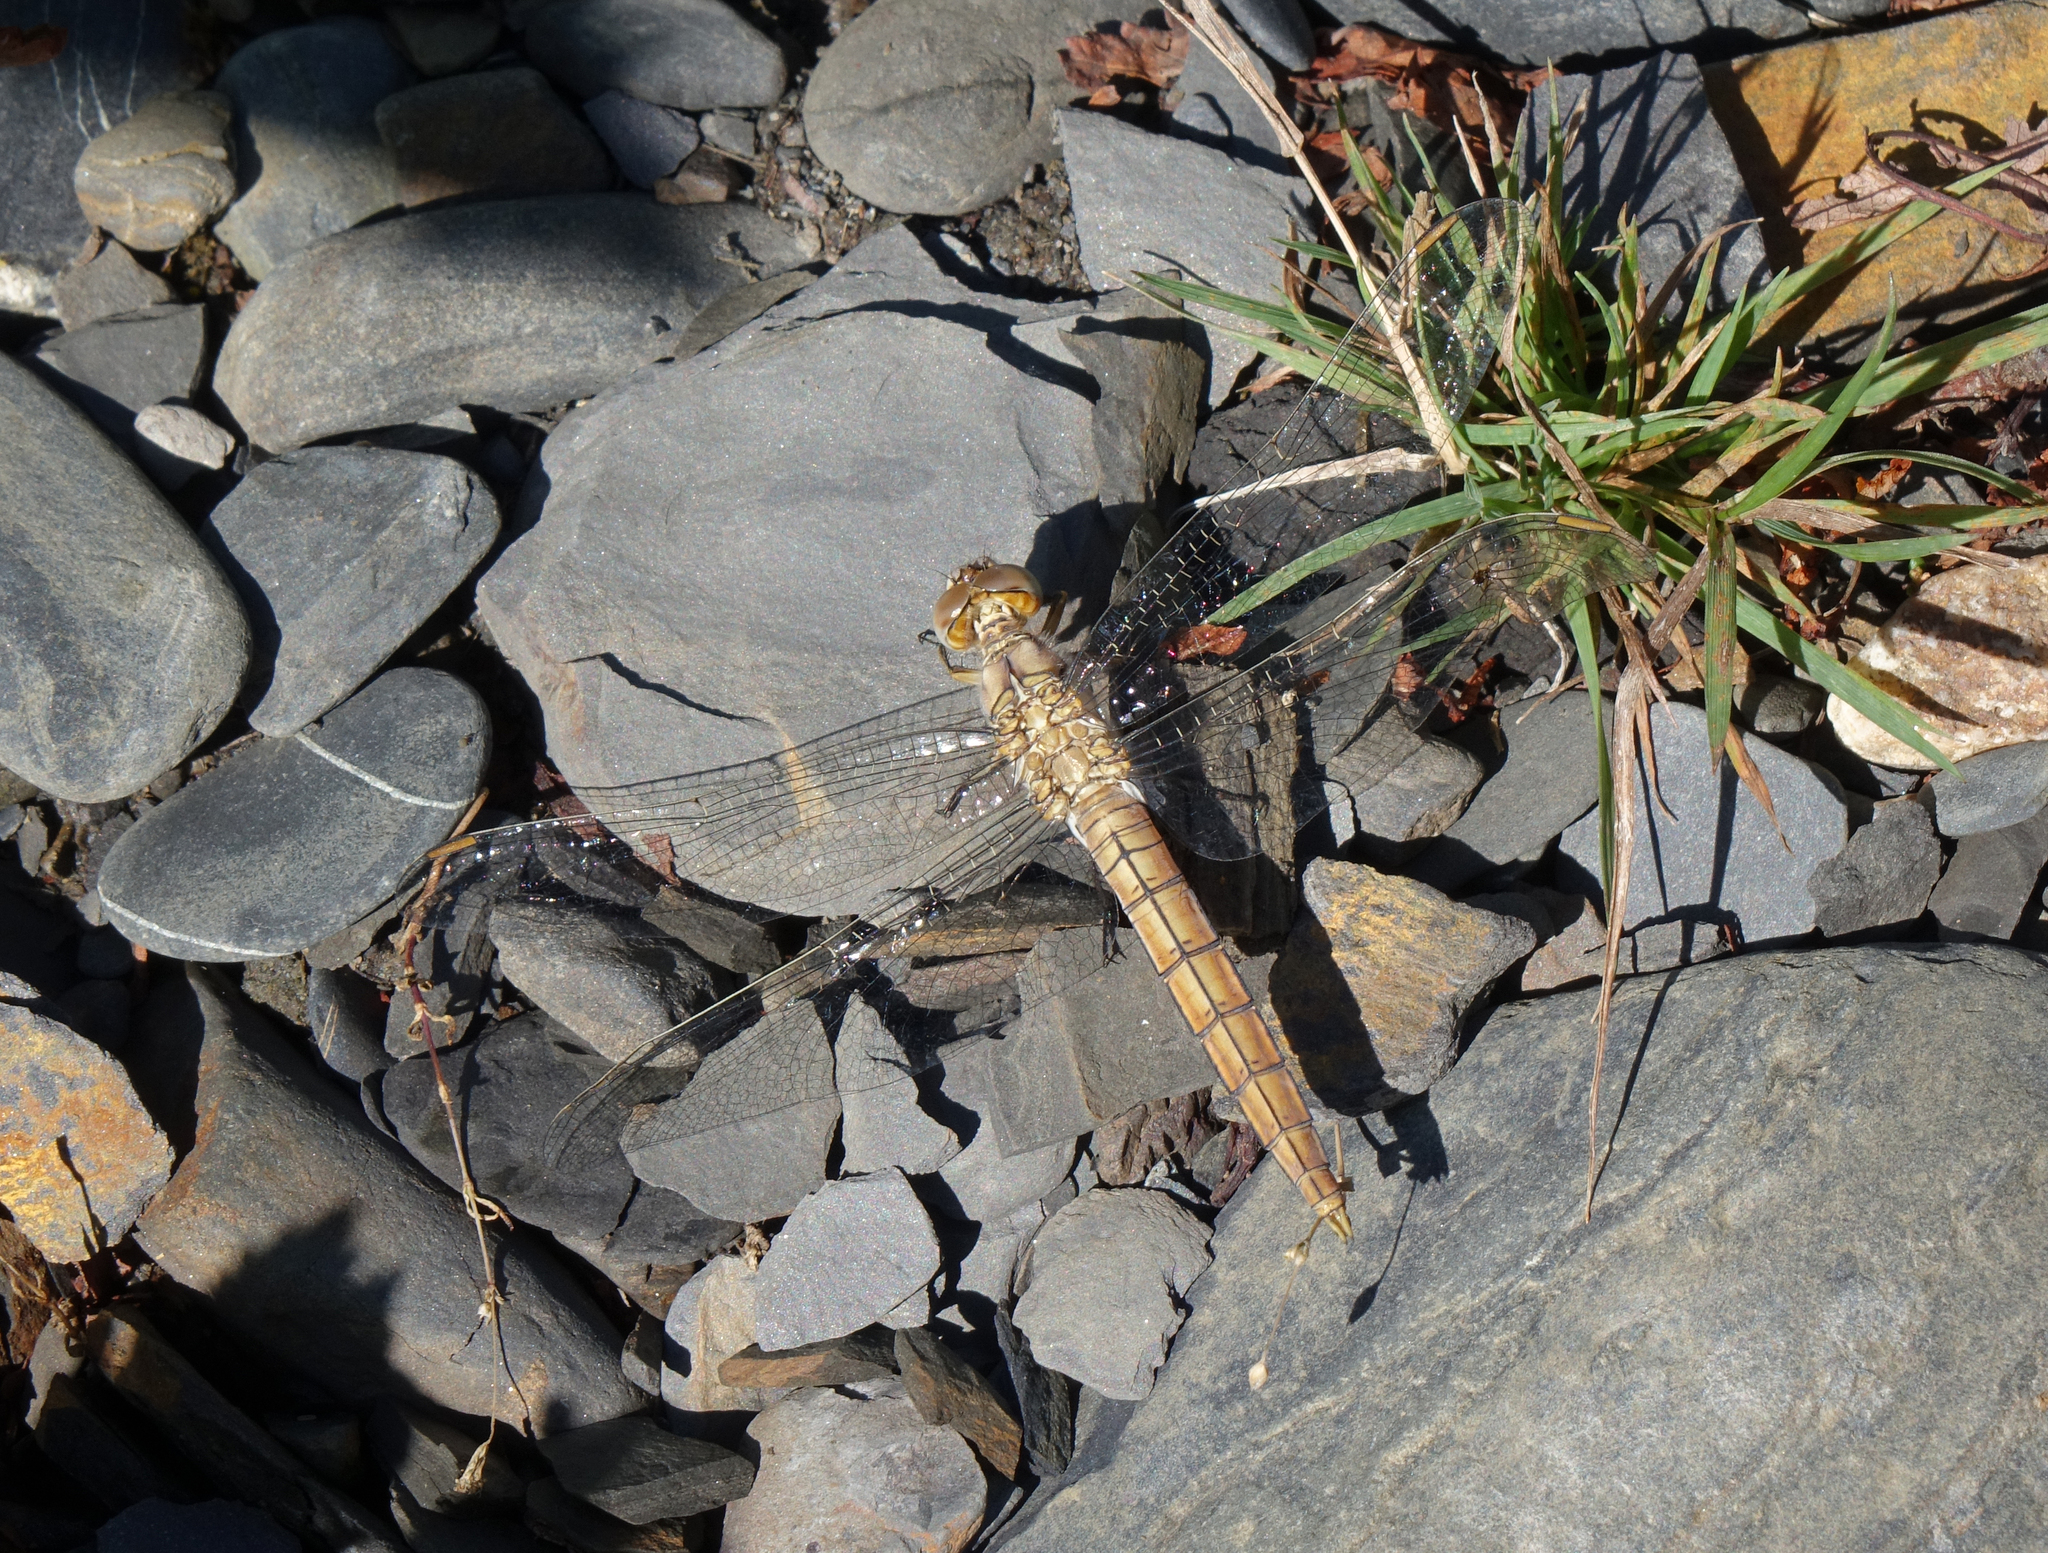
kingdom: Animalia
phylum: Arthropoda
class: Insecta
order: Odonata
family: Libellulidae
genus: Orthetrum
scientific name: Orthetrum brunneum
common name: Southern skimmer
